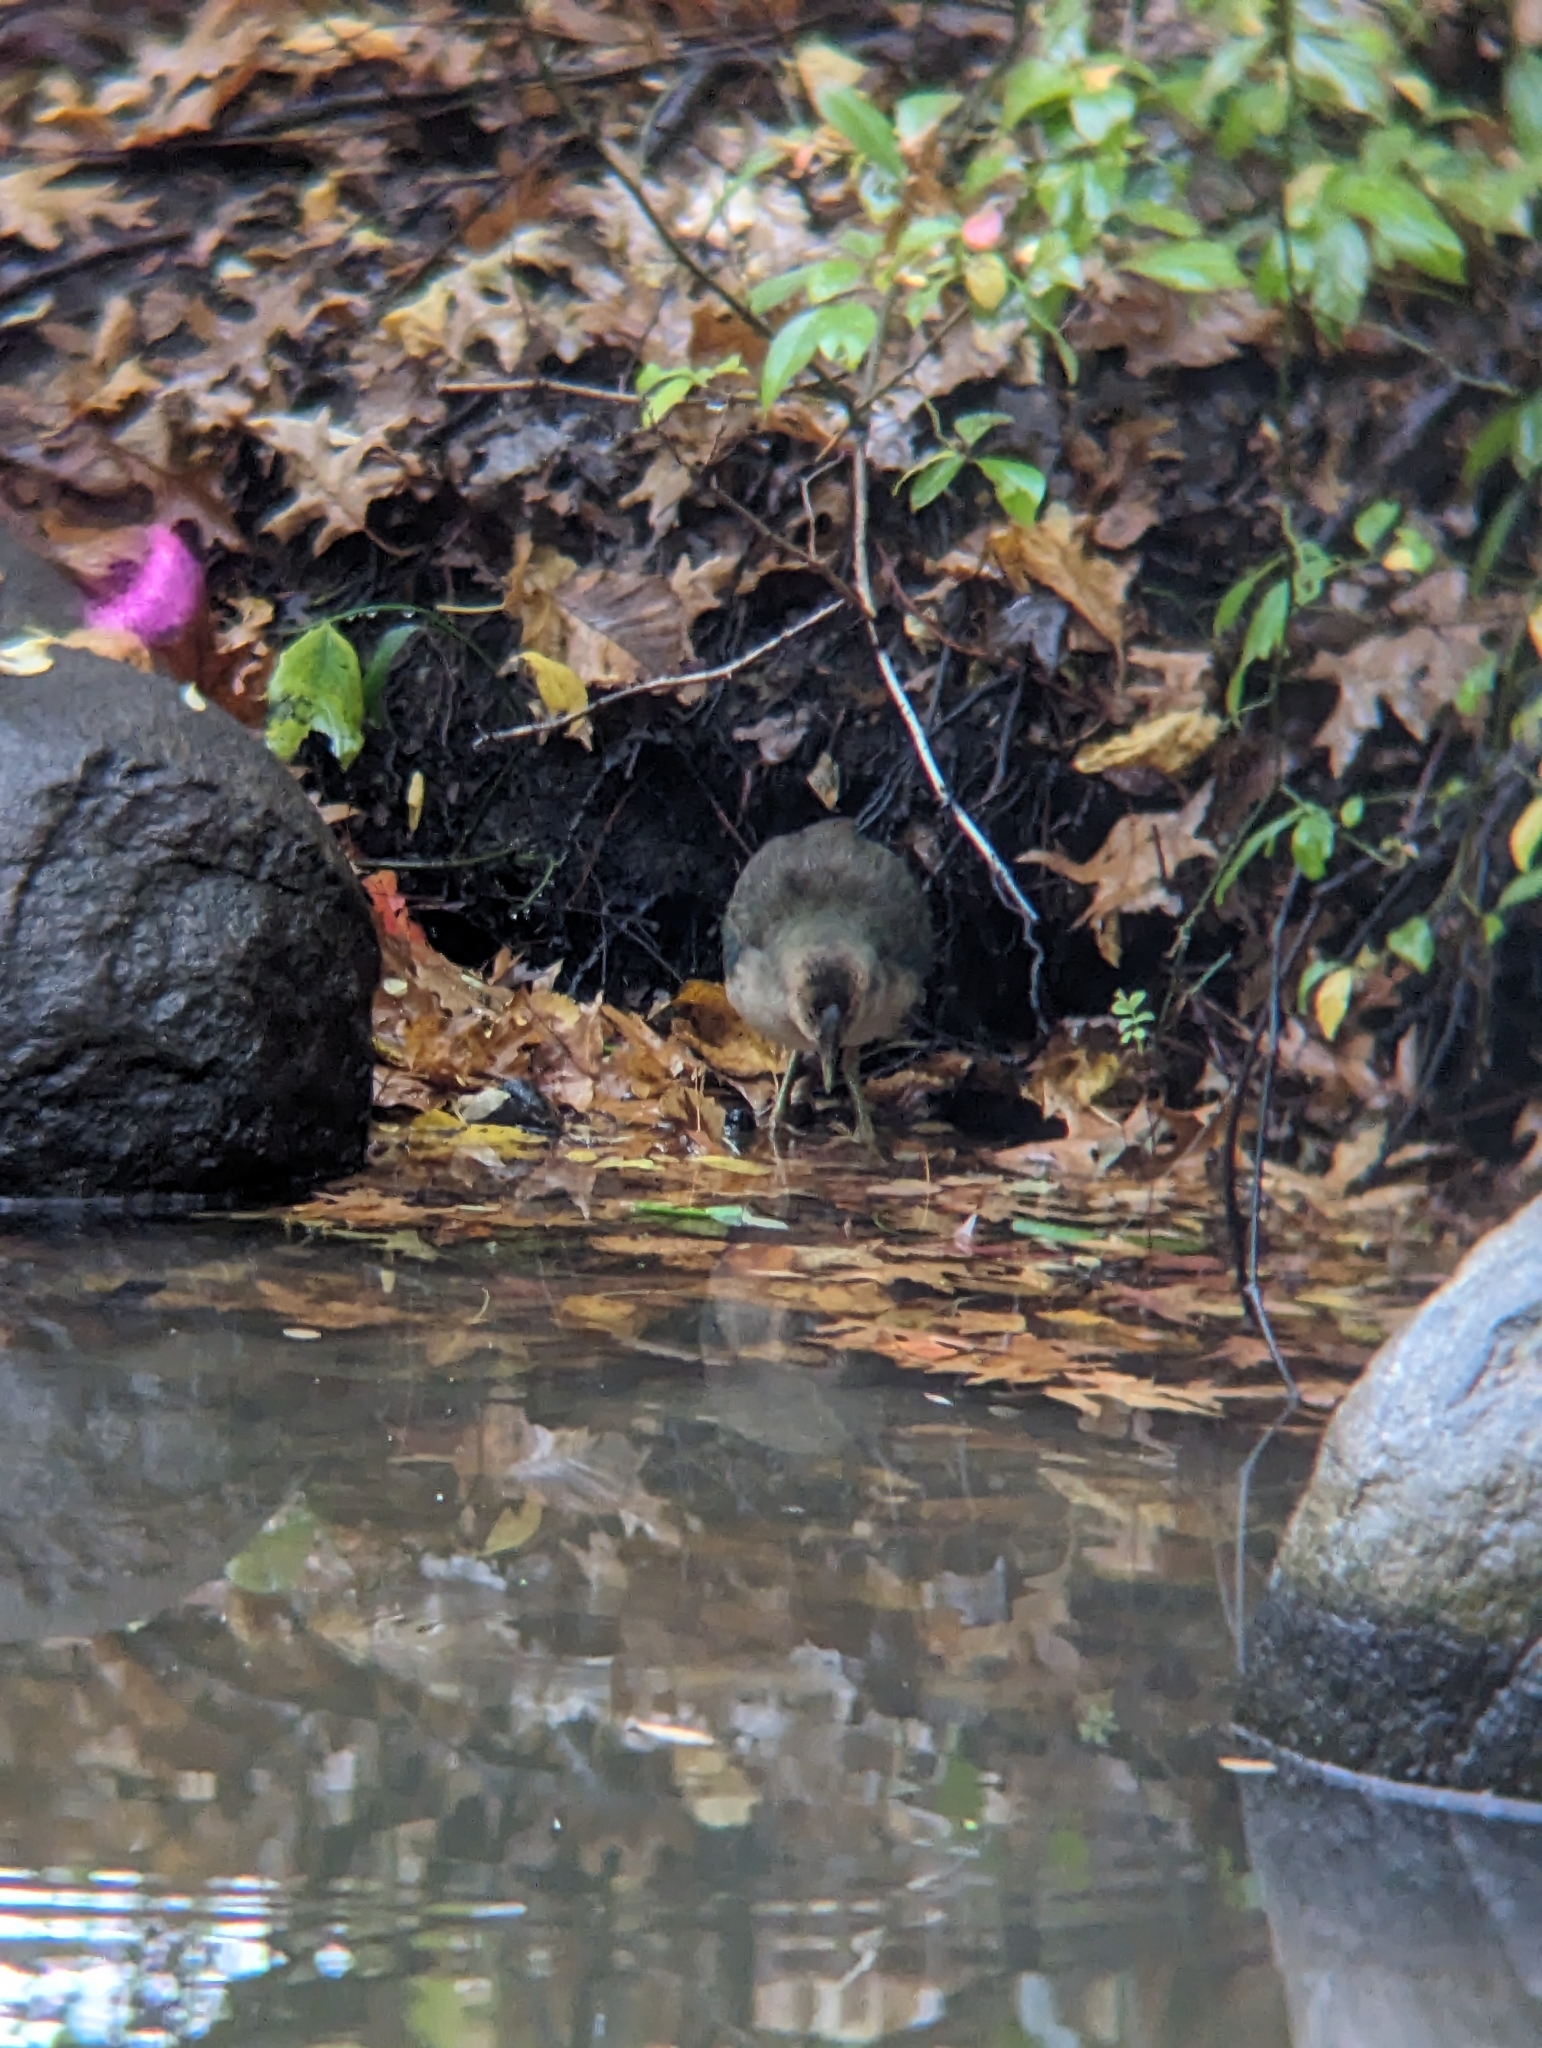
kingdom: Animalia
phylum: Chordata
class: Aves
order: Gruiformes
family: Rallidae
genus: Porphyrio
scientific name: Porphyrio martinica
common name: Purple gallinule
